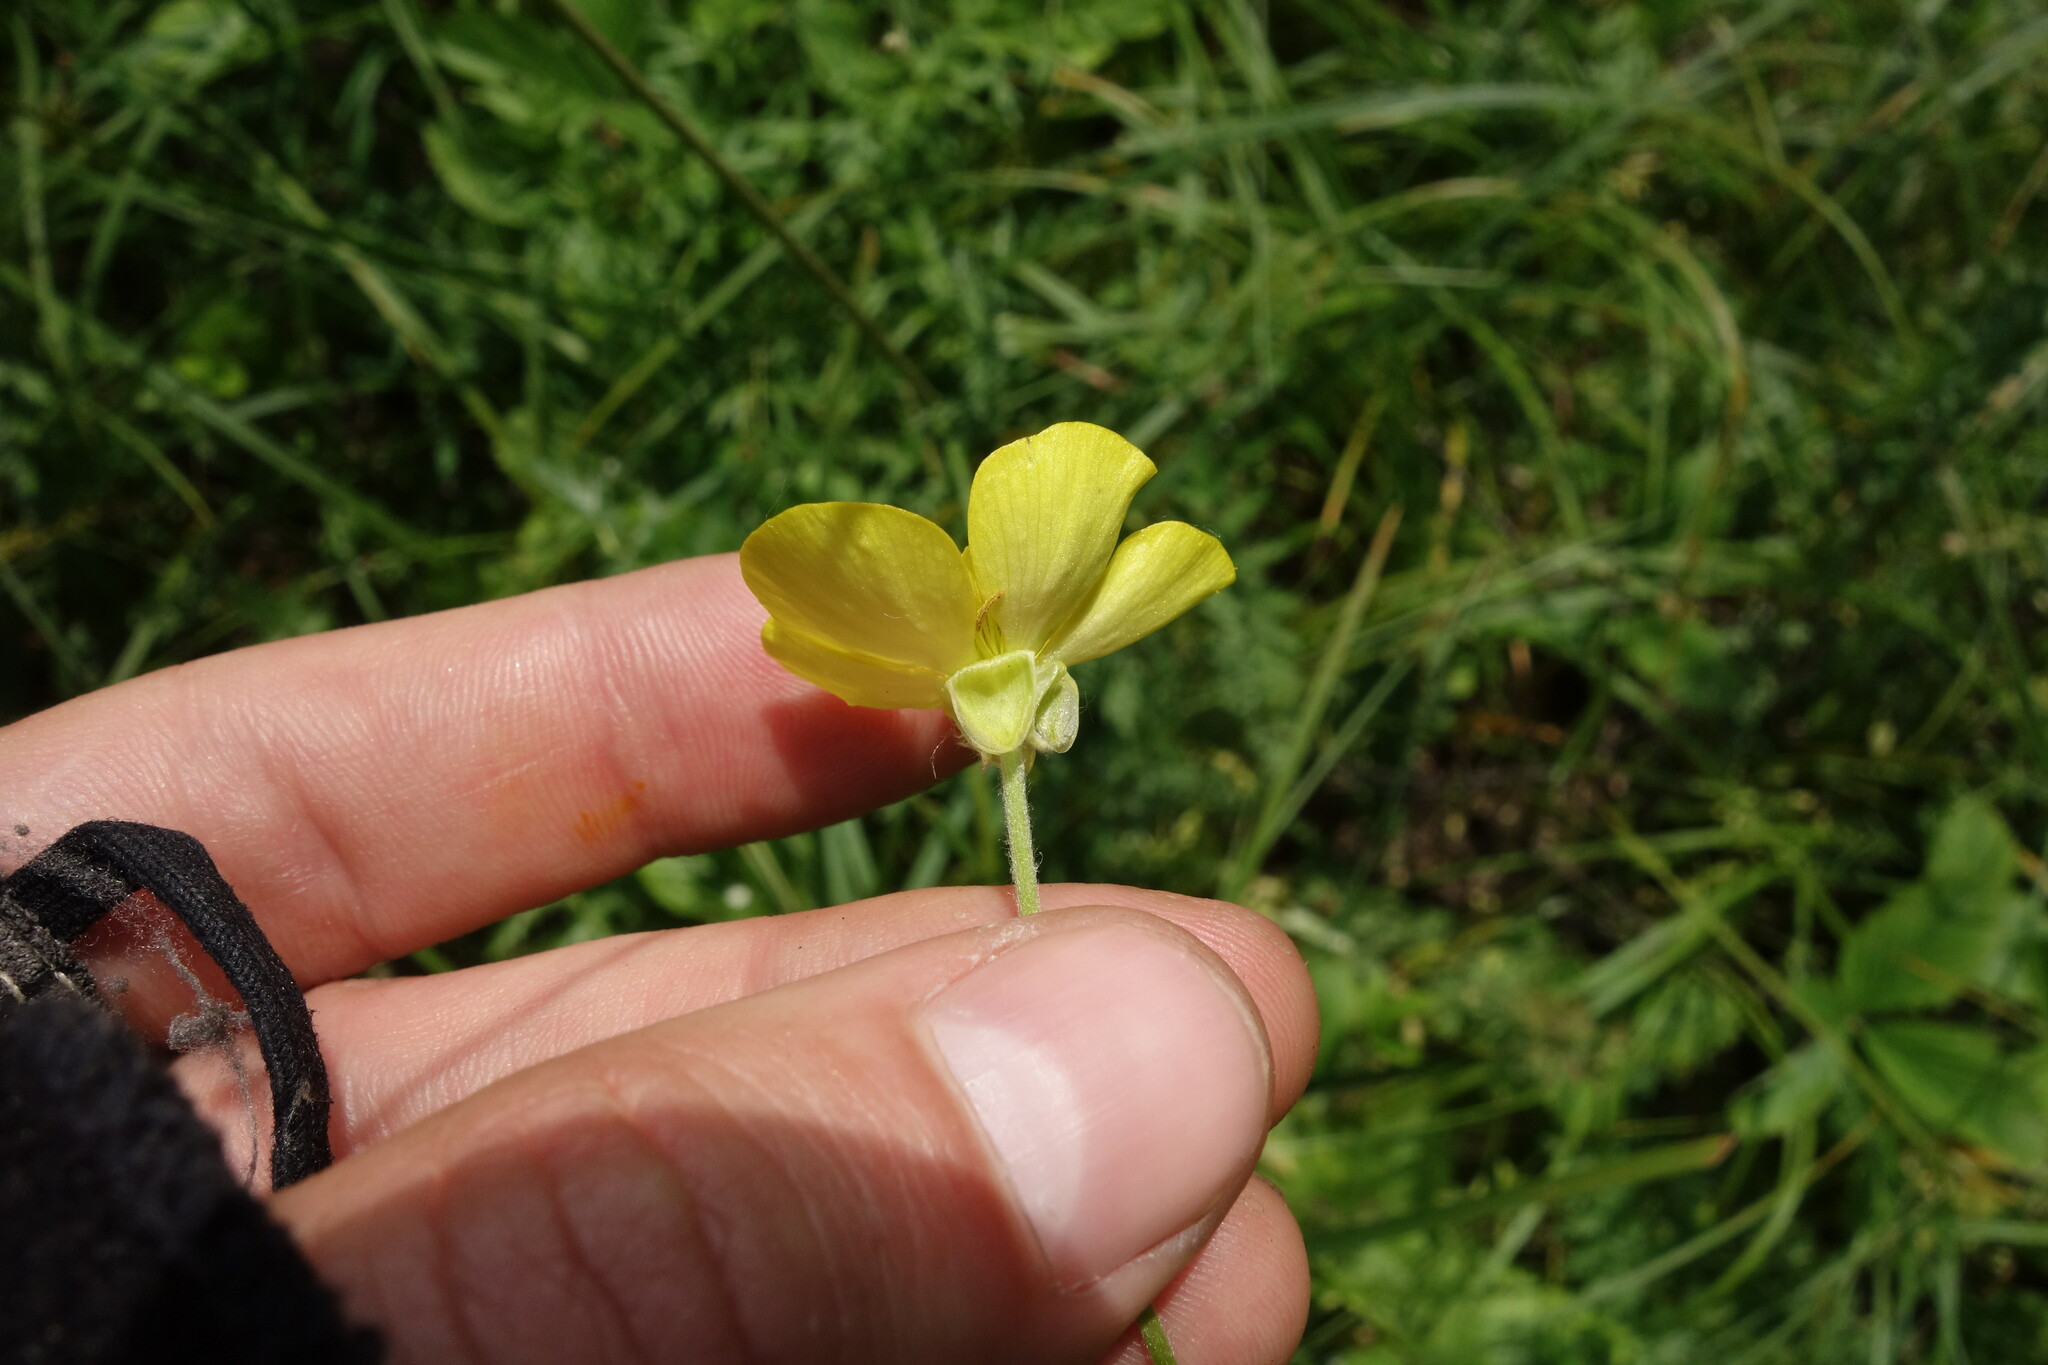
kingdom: Plantae
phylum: Tracheophyta
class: Magnoliopsida
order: Ranunculales
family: Ranunculaceae
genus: Ranunculus
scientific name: Ranunculus illyricus
